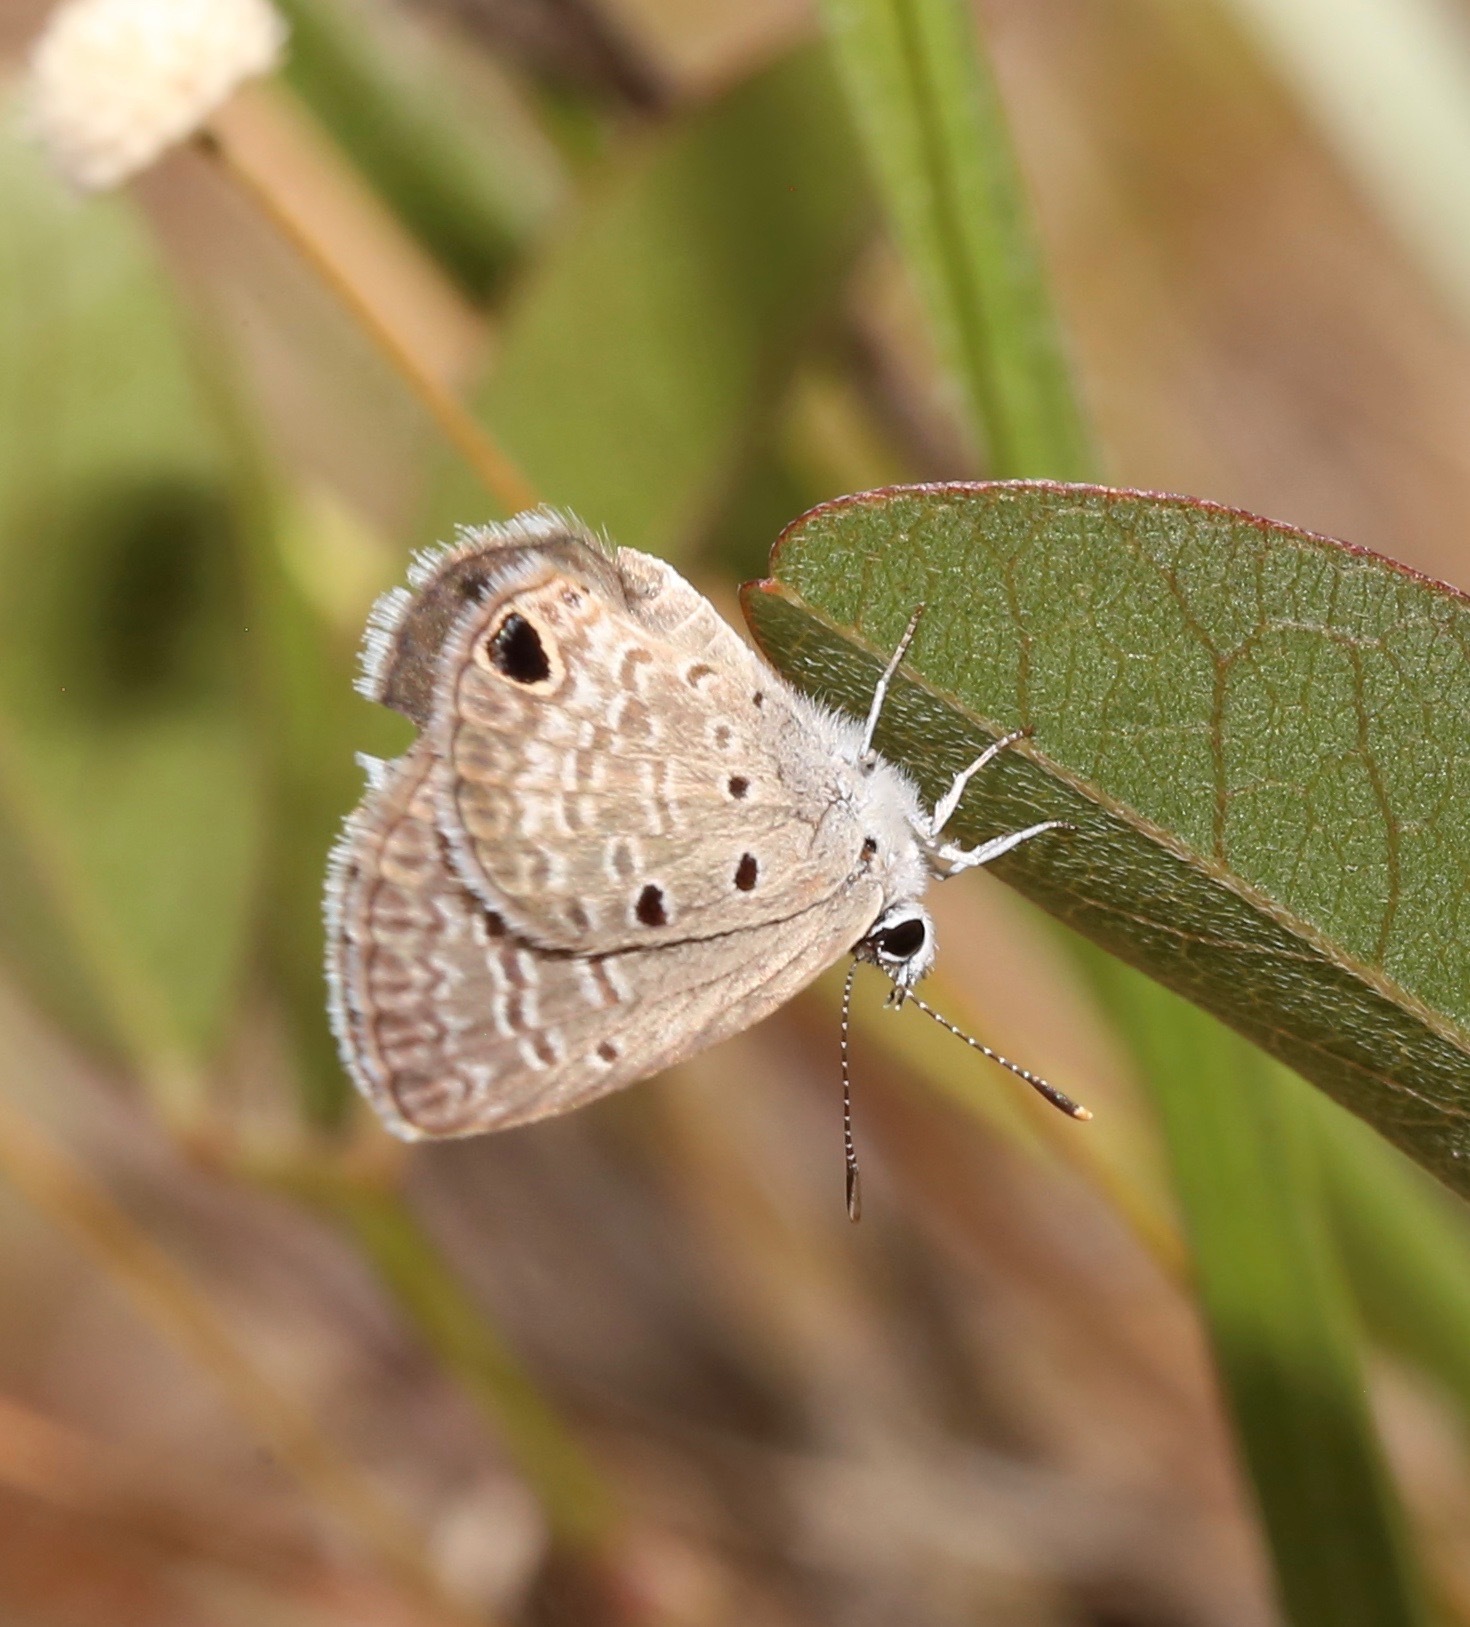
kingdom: Animalia
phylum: Arthropoda
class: Insecta
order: Lepidoptera
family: Lycaenidae
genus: Hemiargus
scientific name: Hemiargus ceraunus
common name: Ceraunus blue
